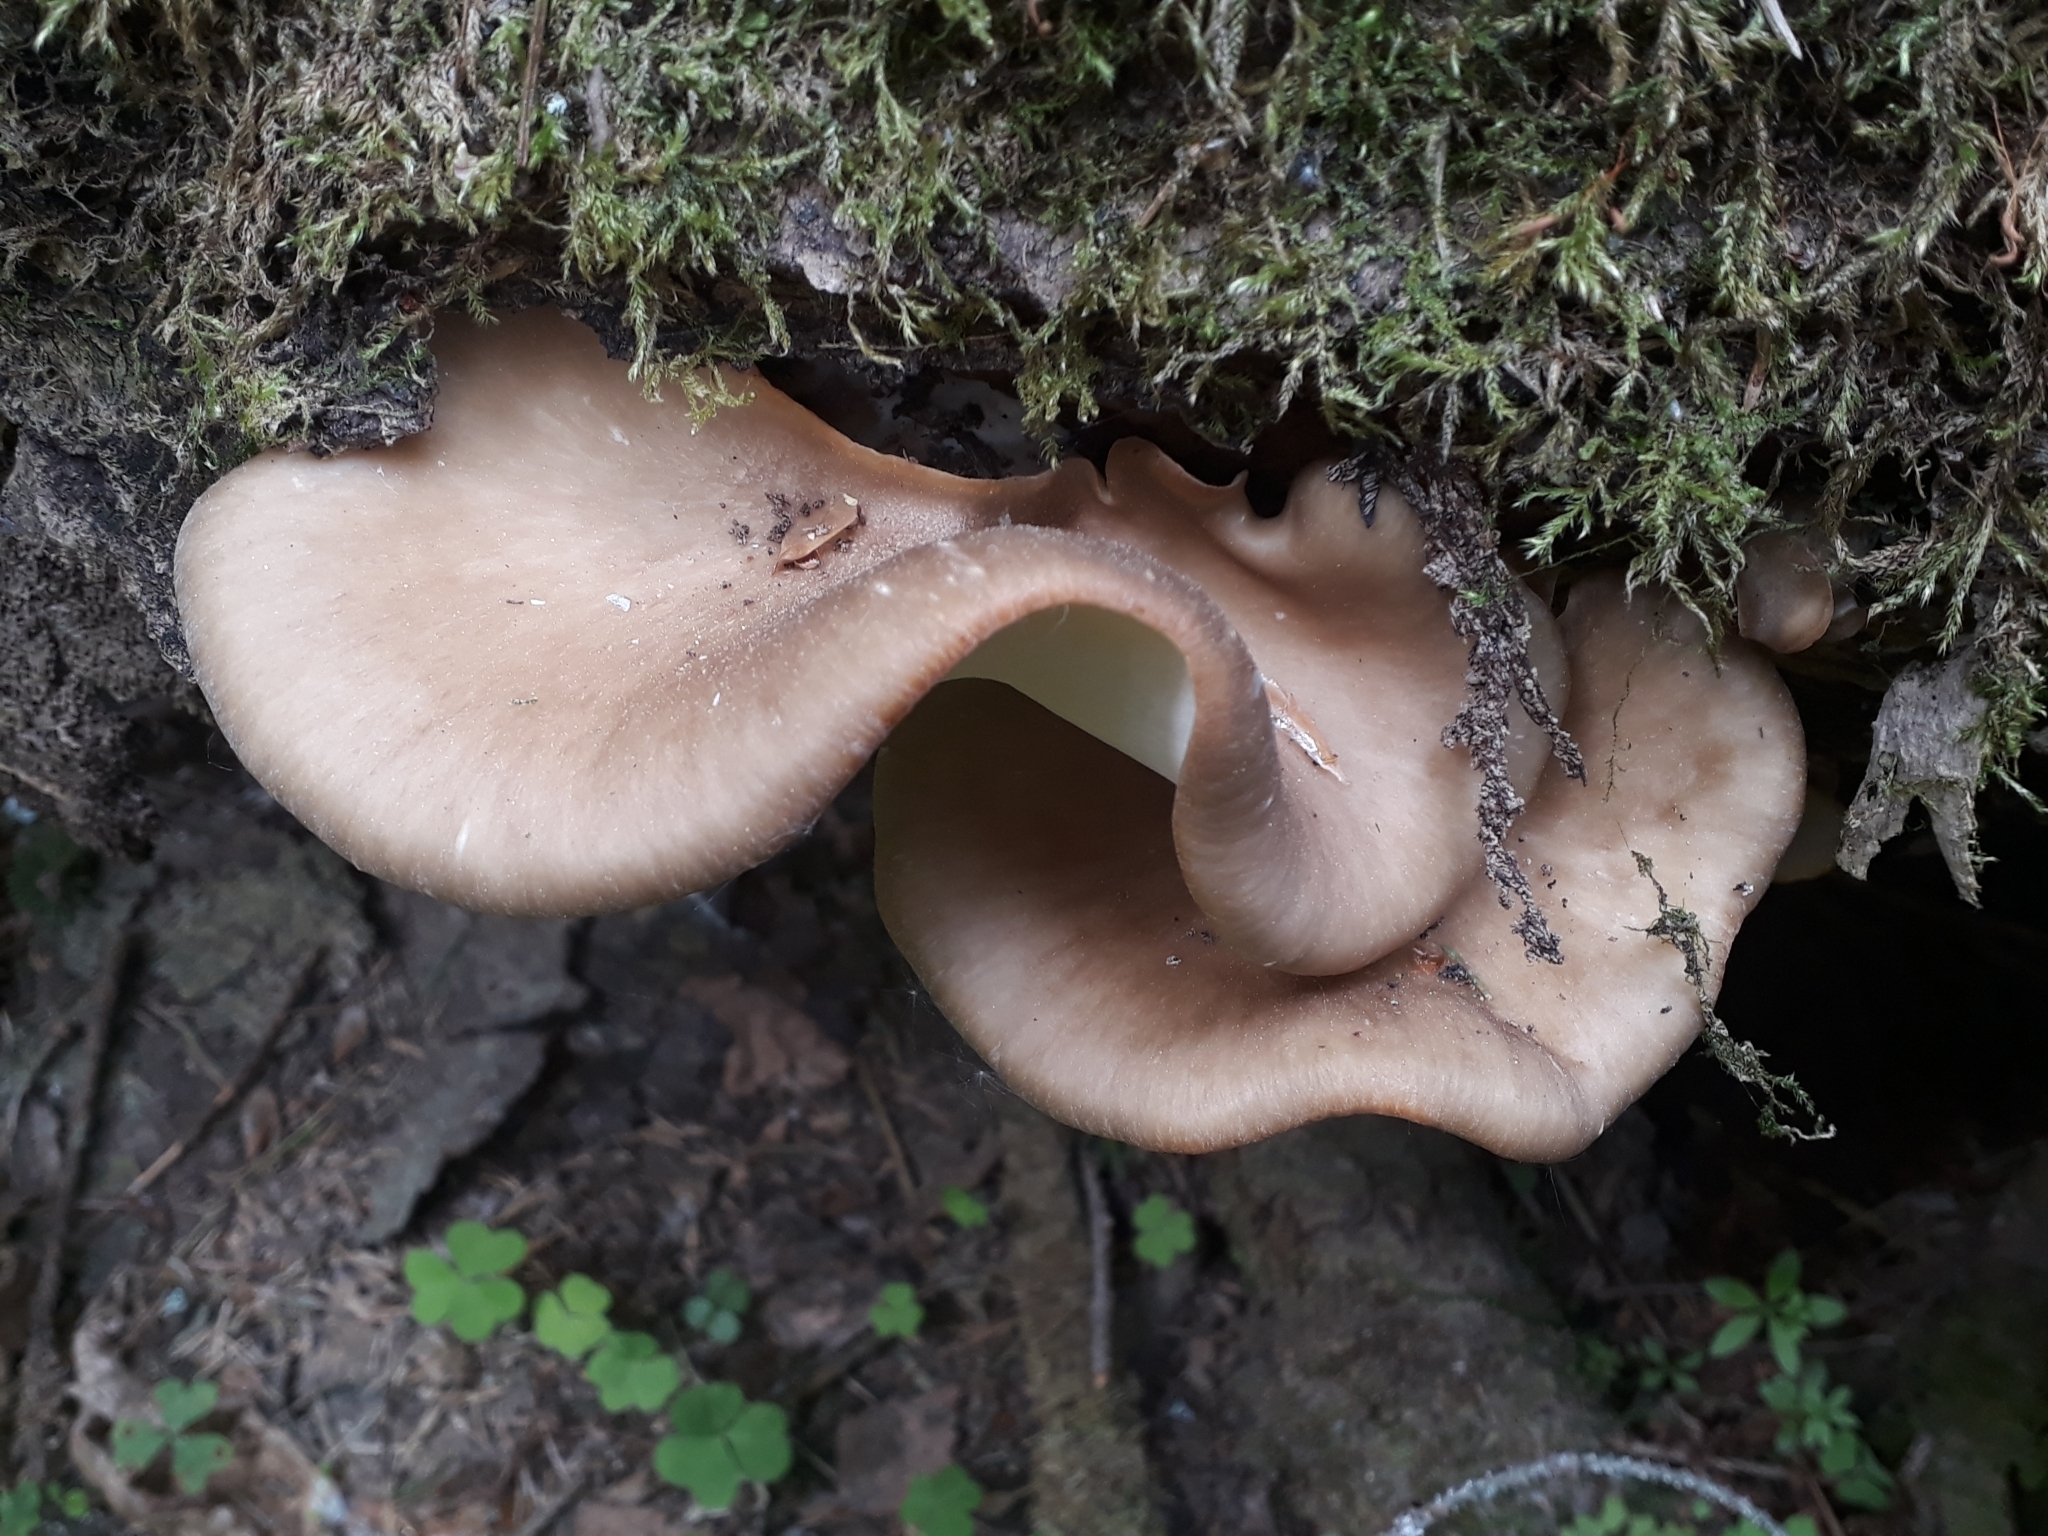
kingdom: Fungi
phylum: Basidiomycota
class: Agaricomycetes
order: Polyporales
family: Polyporaceae
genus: Picipes
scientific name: Picipes badius
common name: Bay polypore
